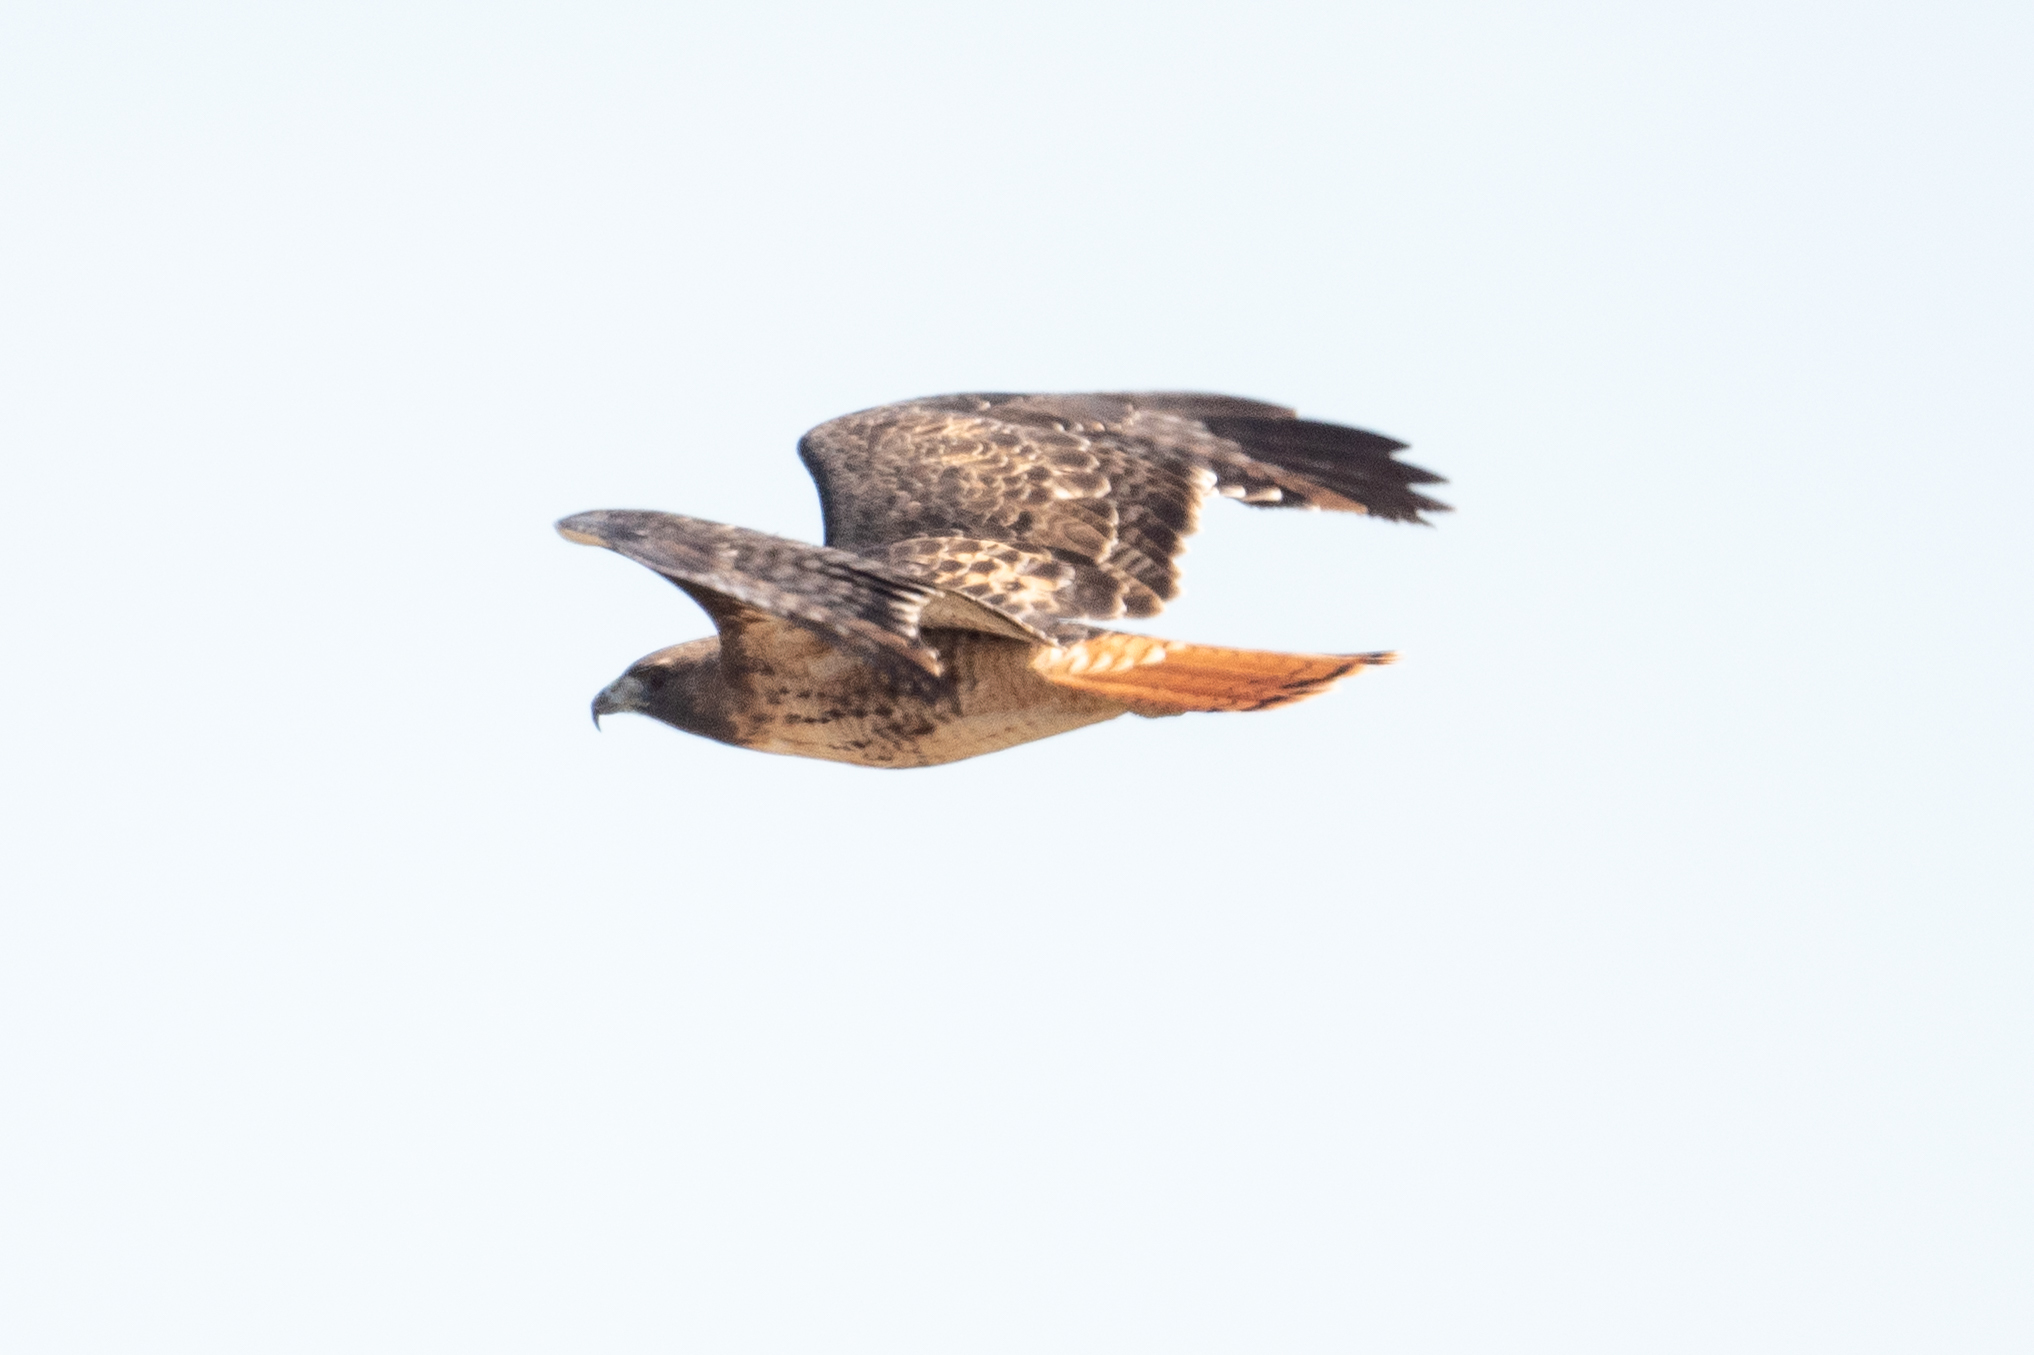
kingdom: Animalia
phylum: Chordata
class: Aves
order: Accipitriformes
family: Accipitridae
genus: Buteo
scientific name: Buteo jamaicensis
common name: Red-tailed hawk
